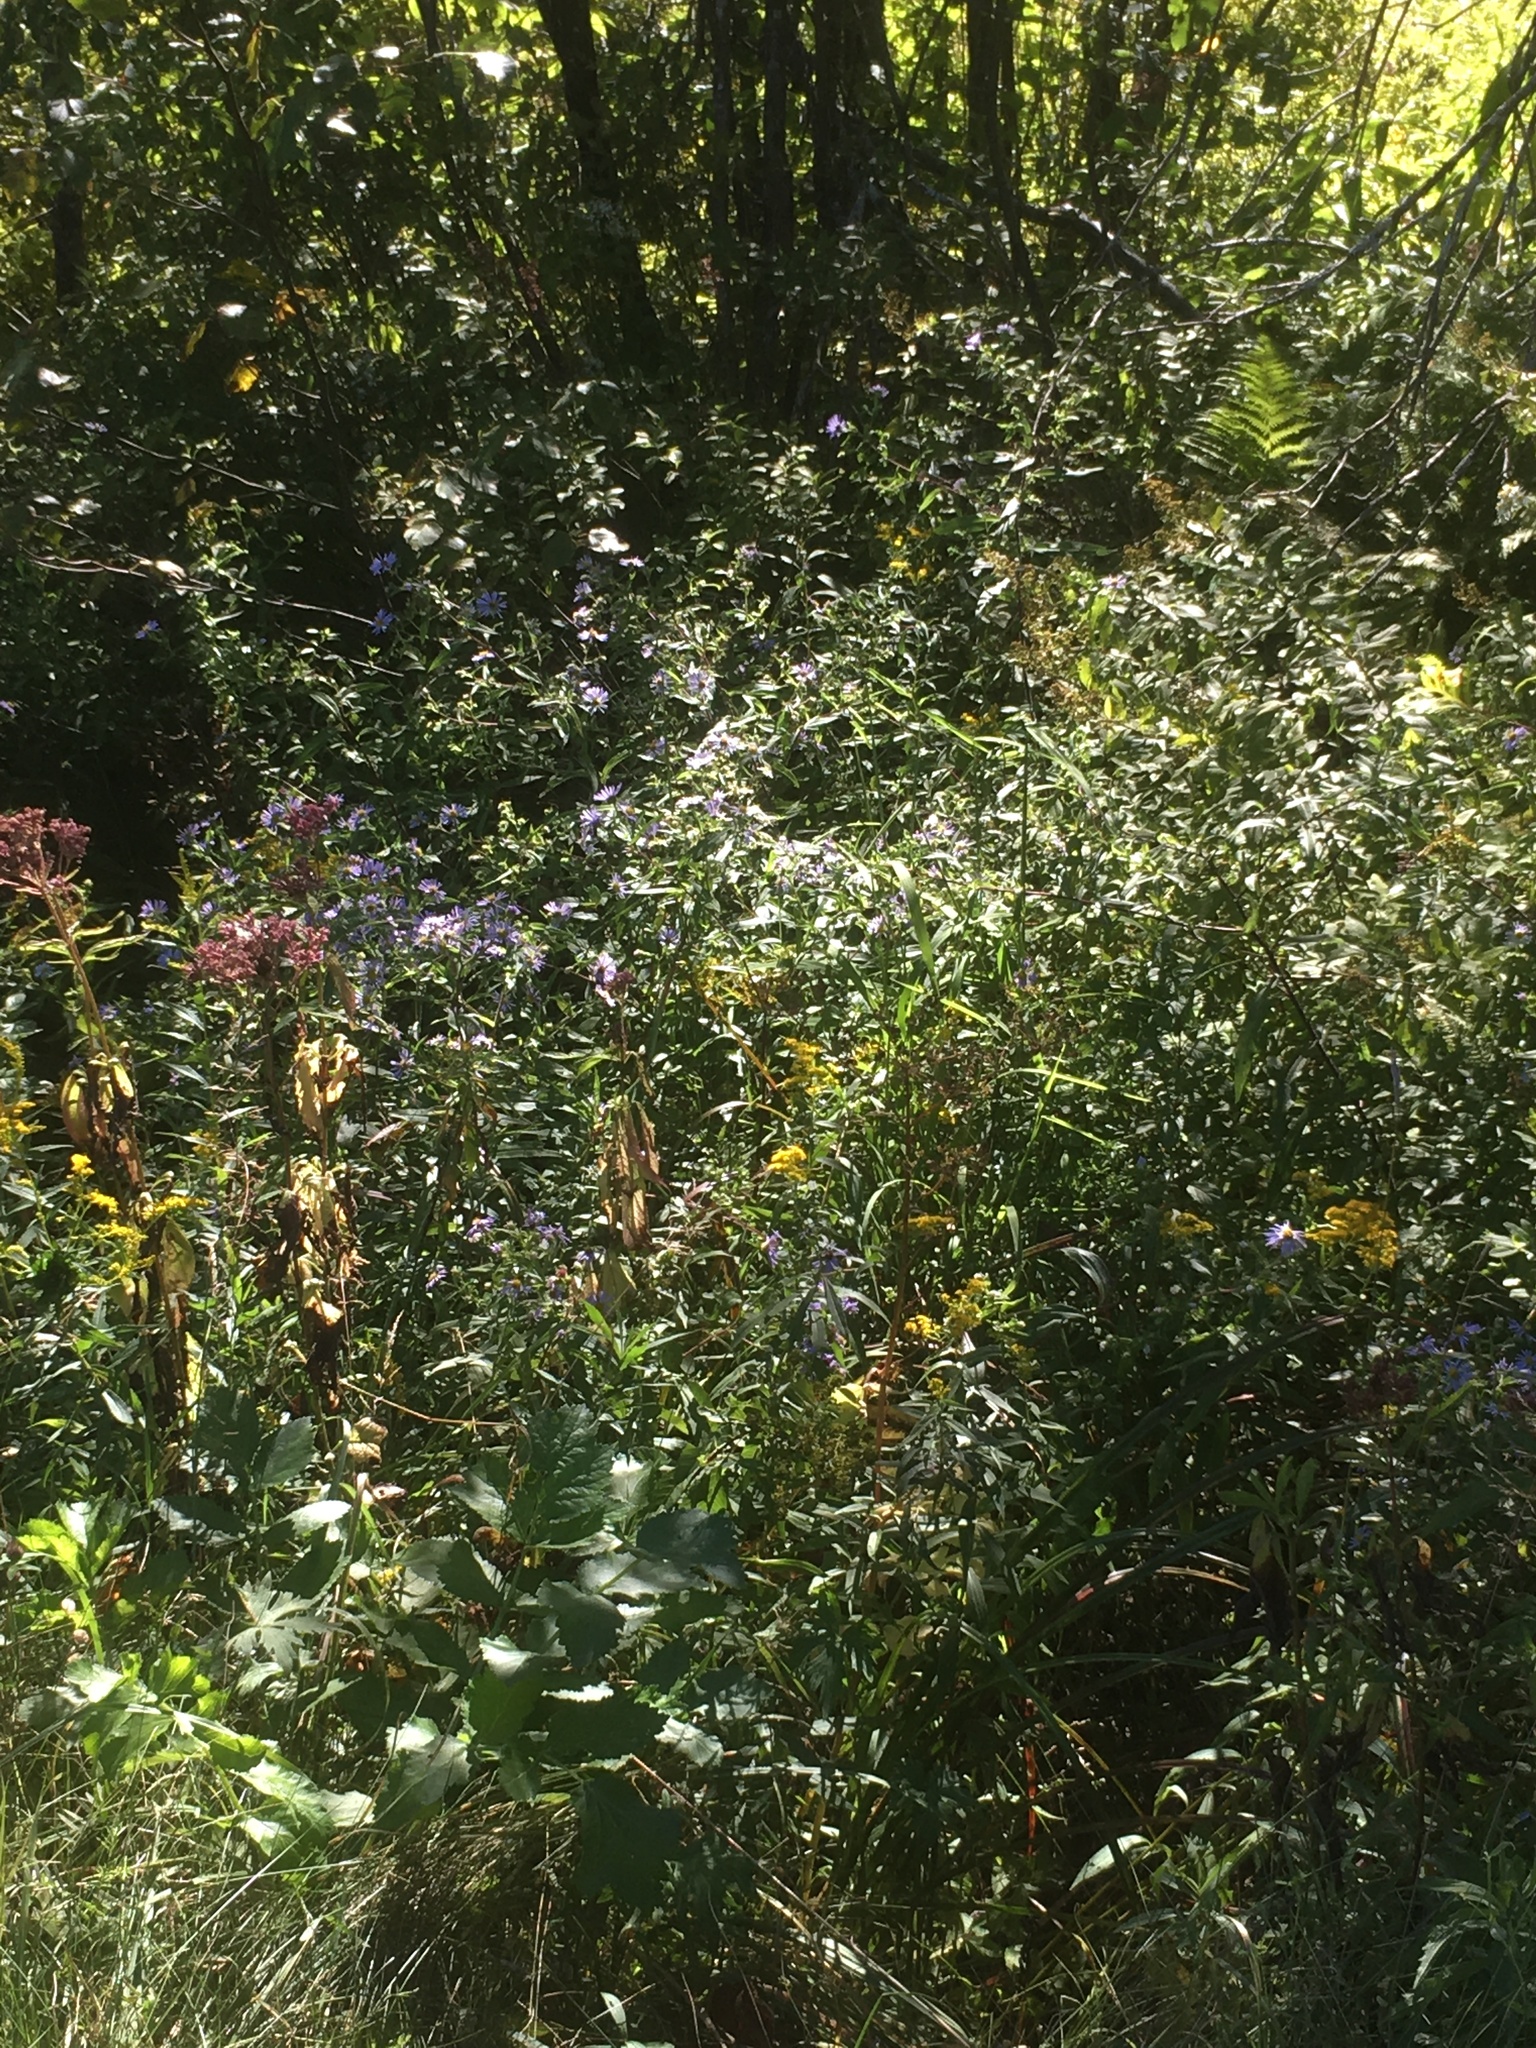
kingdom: Plantae
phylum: Tracheophyta
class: Magnoliopsida
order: Asterales
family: Asteraceae
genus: Symphyotrichum
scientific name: Symphyotrichum puniceum
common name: Bog aster
